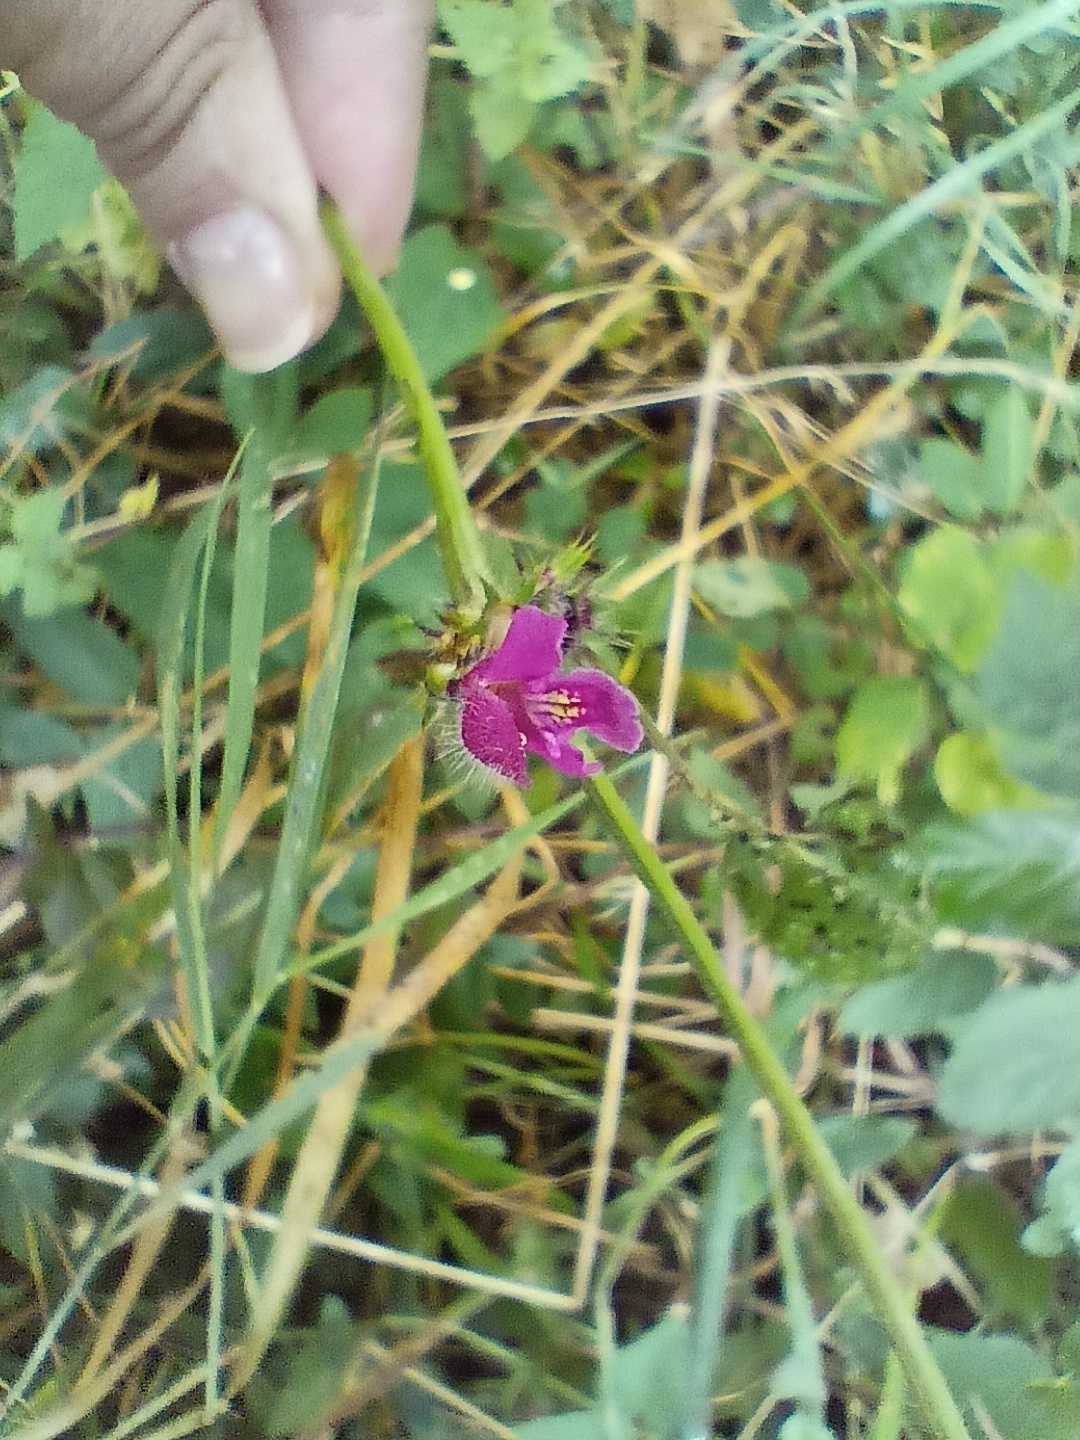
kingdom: Plantae
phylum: Tracheophyta
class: Magnoliopsida
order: Lamiales
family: Lamiaceae
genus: Galeopsis
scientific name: Galeopsis pubescens
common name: Downy hemp-nettle
